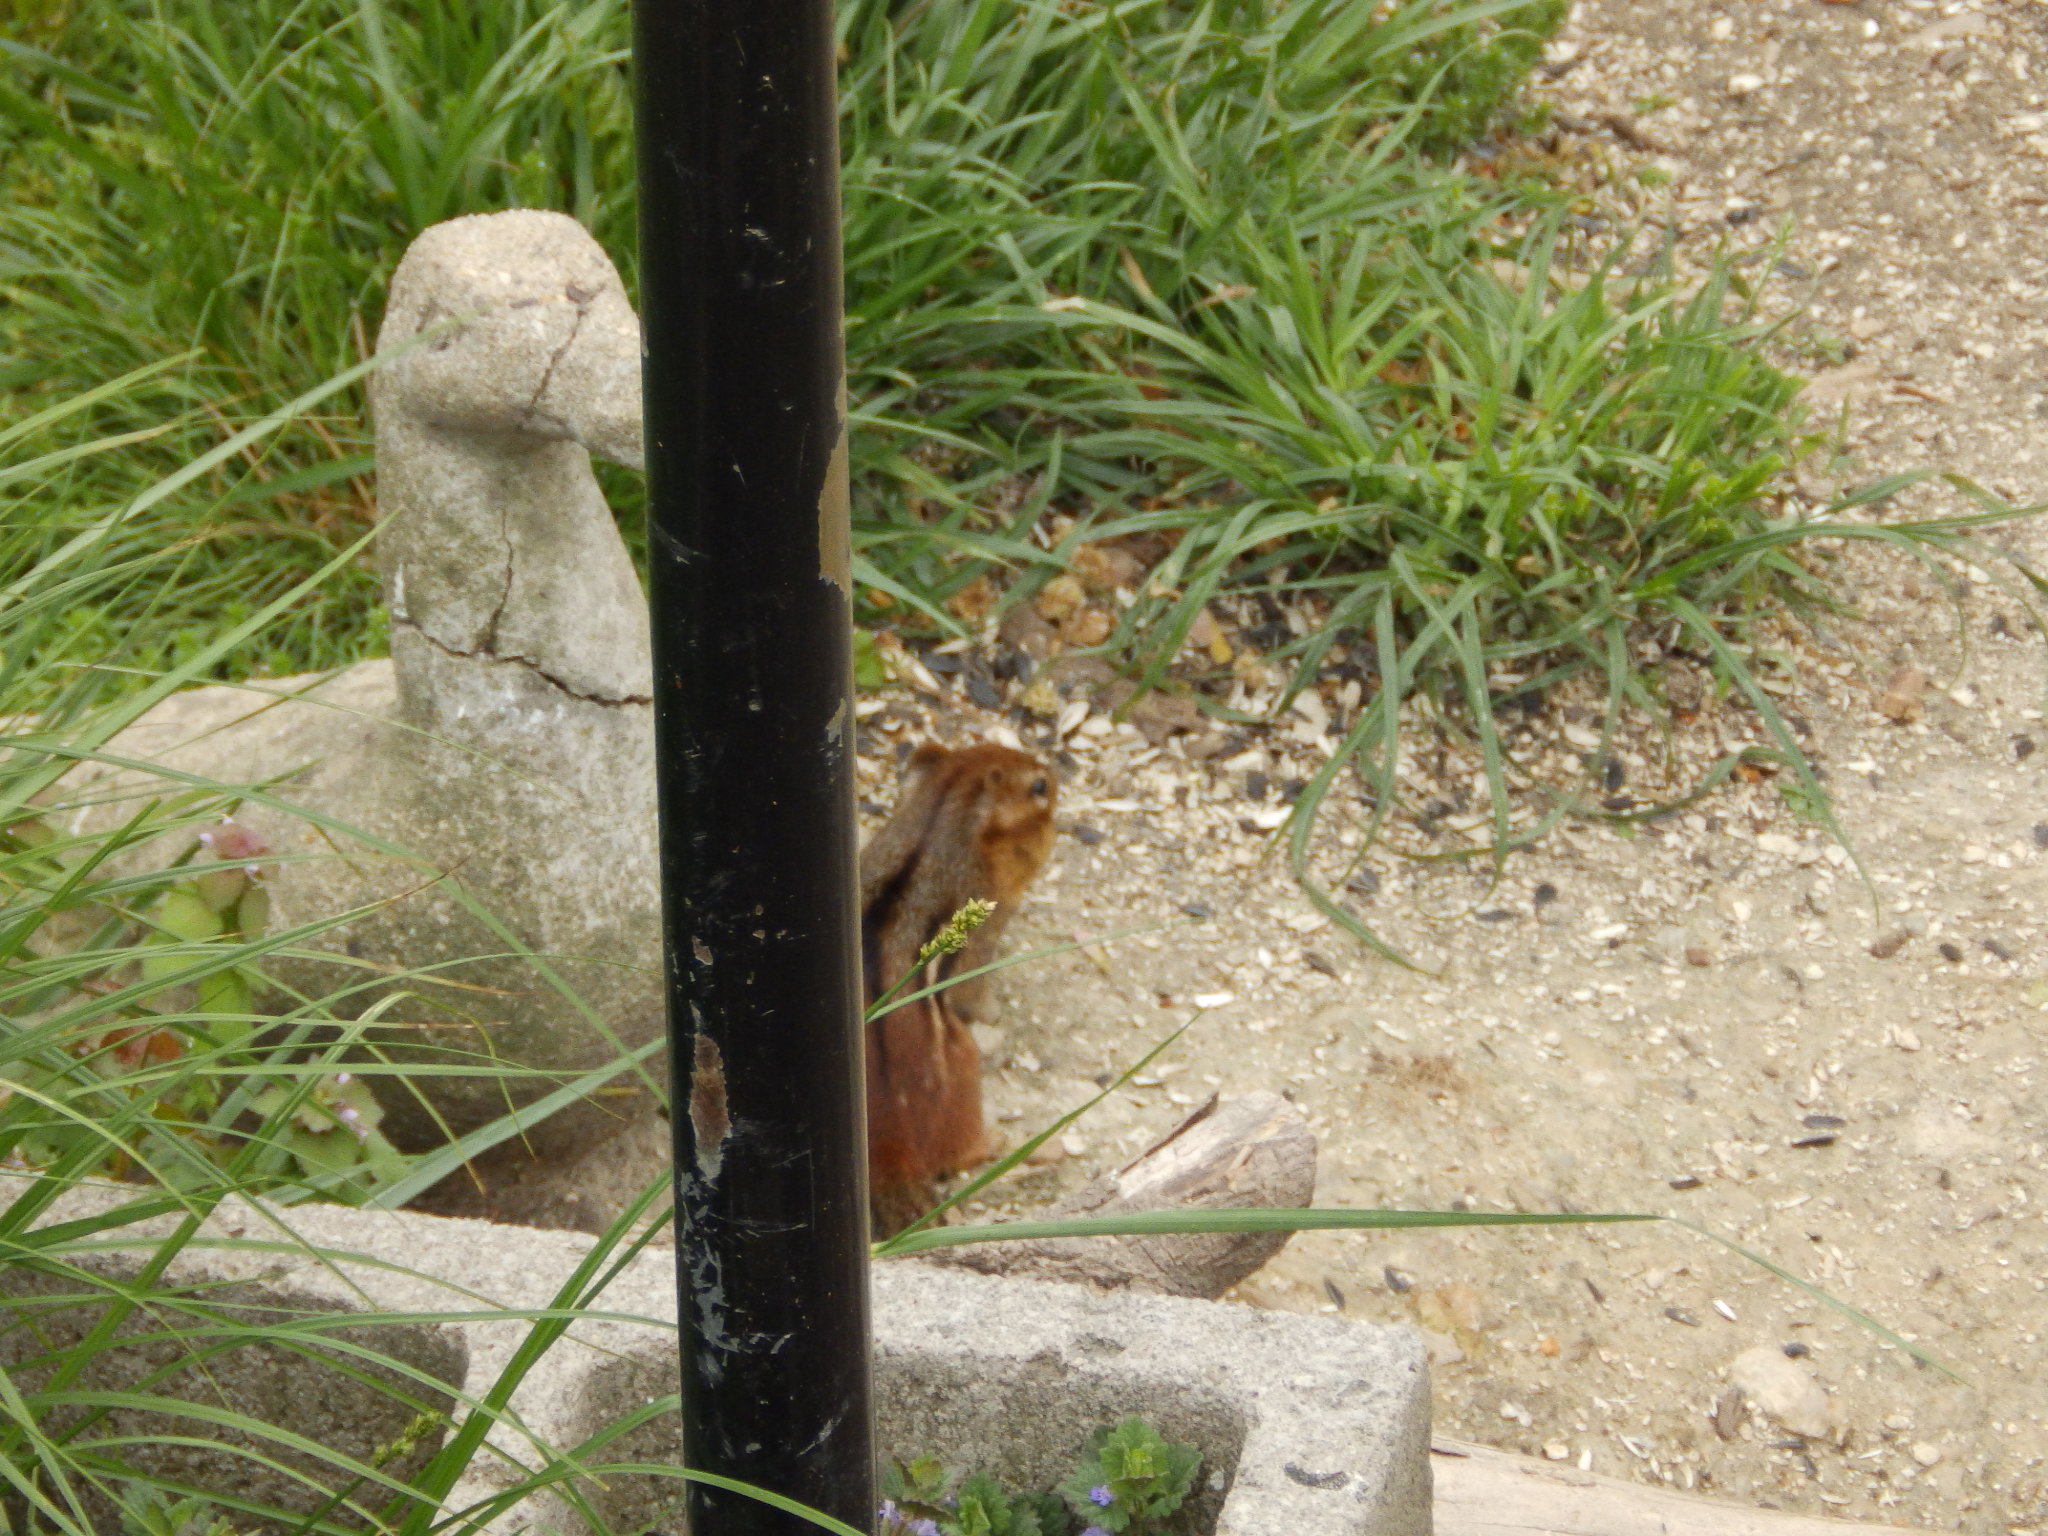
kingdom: Animalia
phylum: Chordata
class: Mammalia
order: Rodentia
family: Sciuridae
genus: Tamias
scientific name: Tamias striatus
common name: Eastern chipmunk
